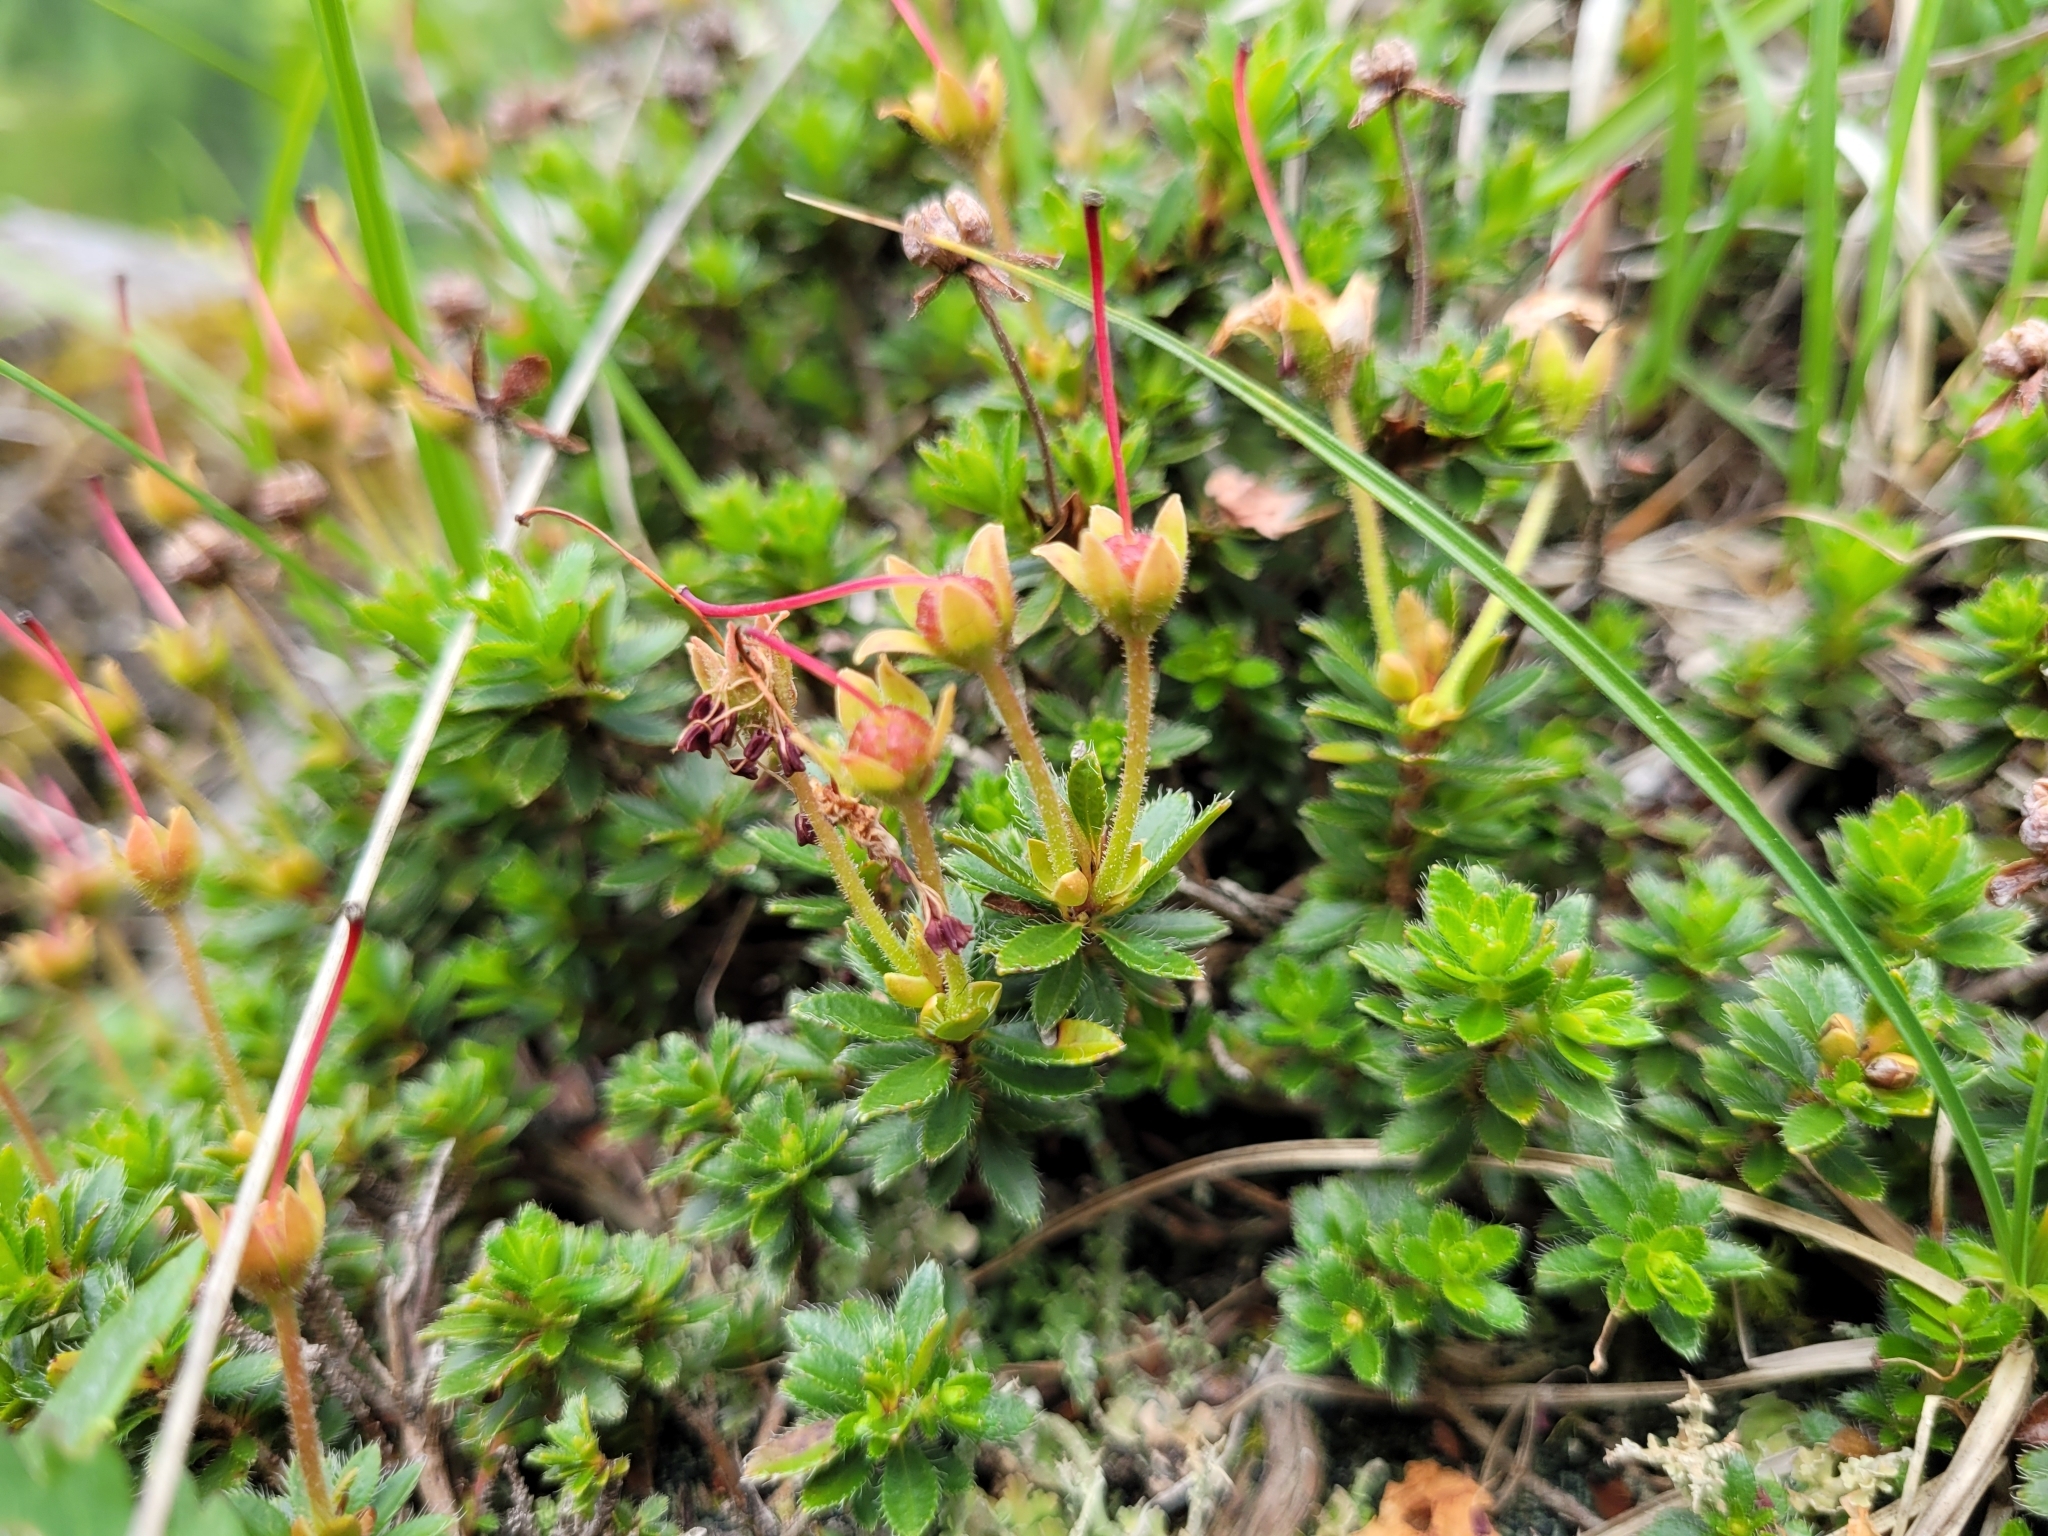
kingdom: Plantae
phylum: Tracheophyta
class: Magnoliopsida
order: Ericales
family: Ericaceae
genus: Rhodothamnus
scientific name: Rhodothamnus chamaecistus
